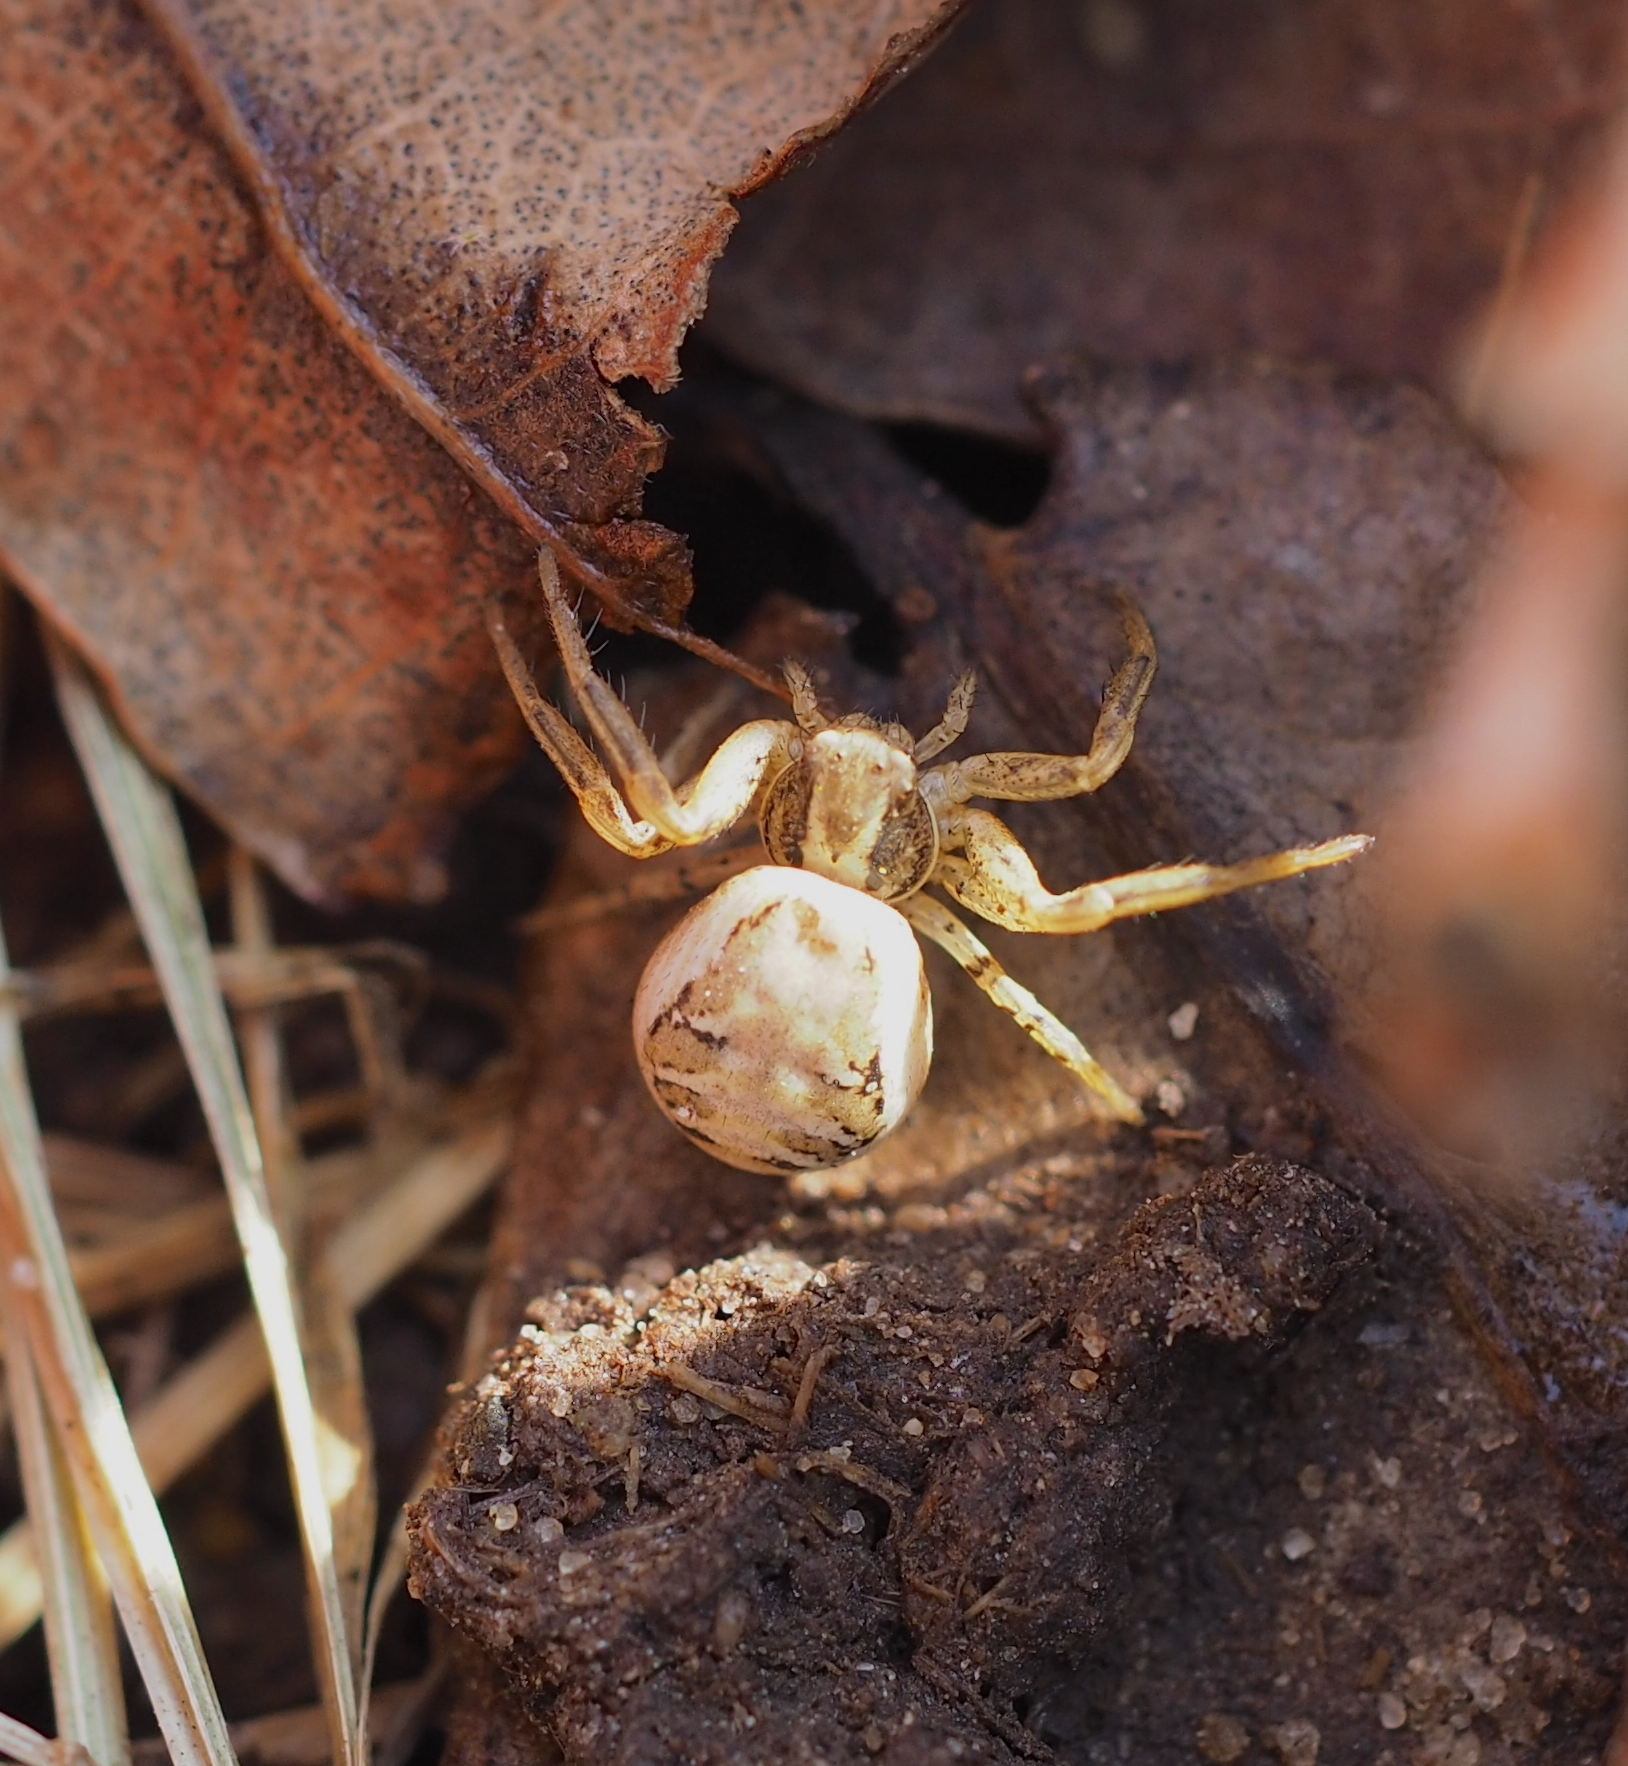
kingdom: Animalia
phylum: Arthropoda
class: Arachnida
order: Araneae
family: Thomisidae
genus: Xysticus
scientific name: Xysticus
